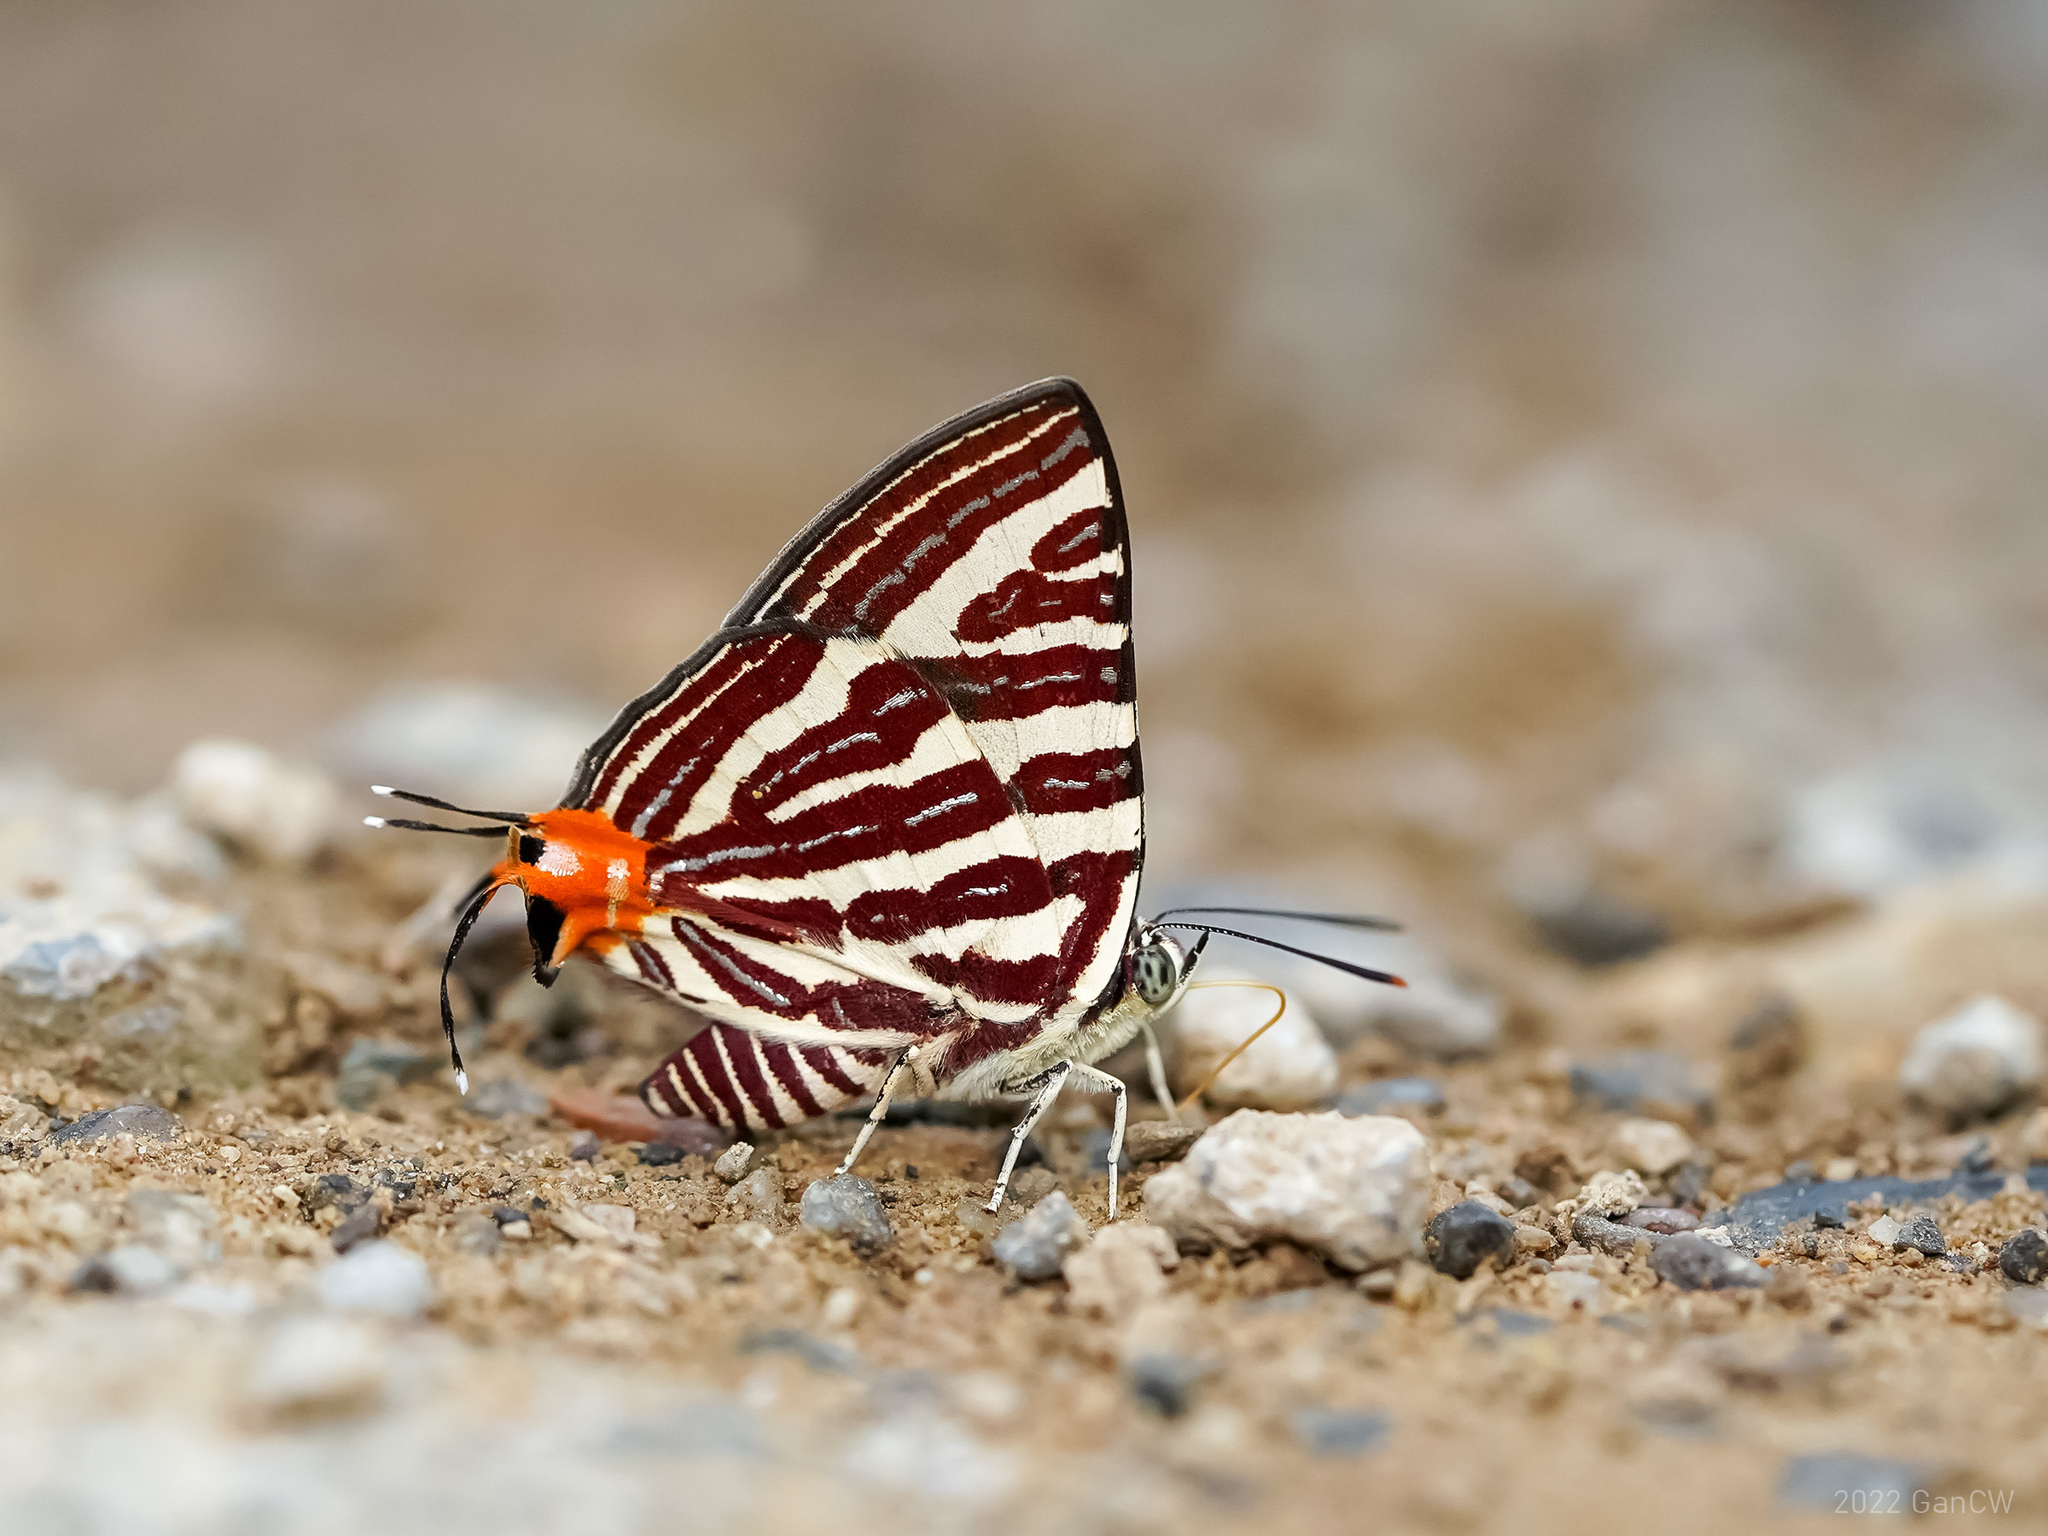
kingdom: Animalia
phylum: Arthropoda
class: Insecta
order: Lepidoptera
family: Lycaenidae
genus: Cigaritis
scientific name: Cigaritis lohita
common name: Long-banded silverline
